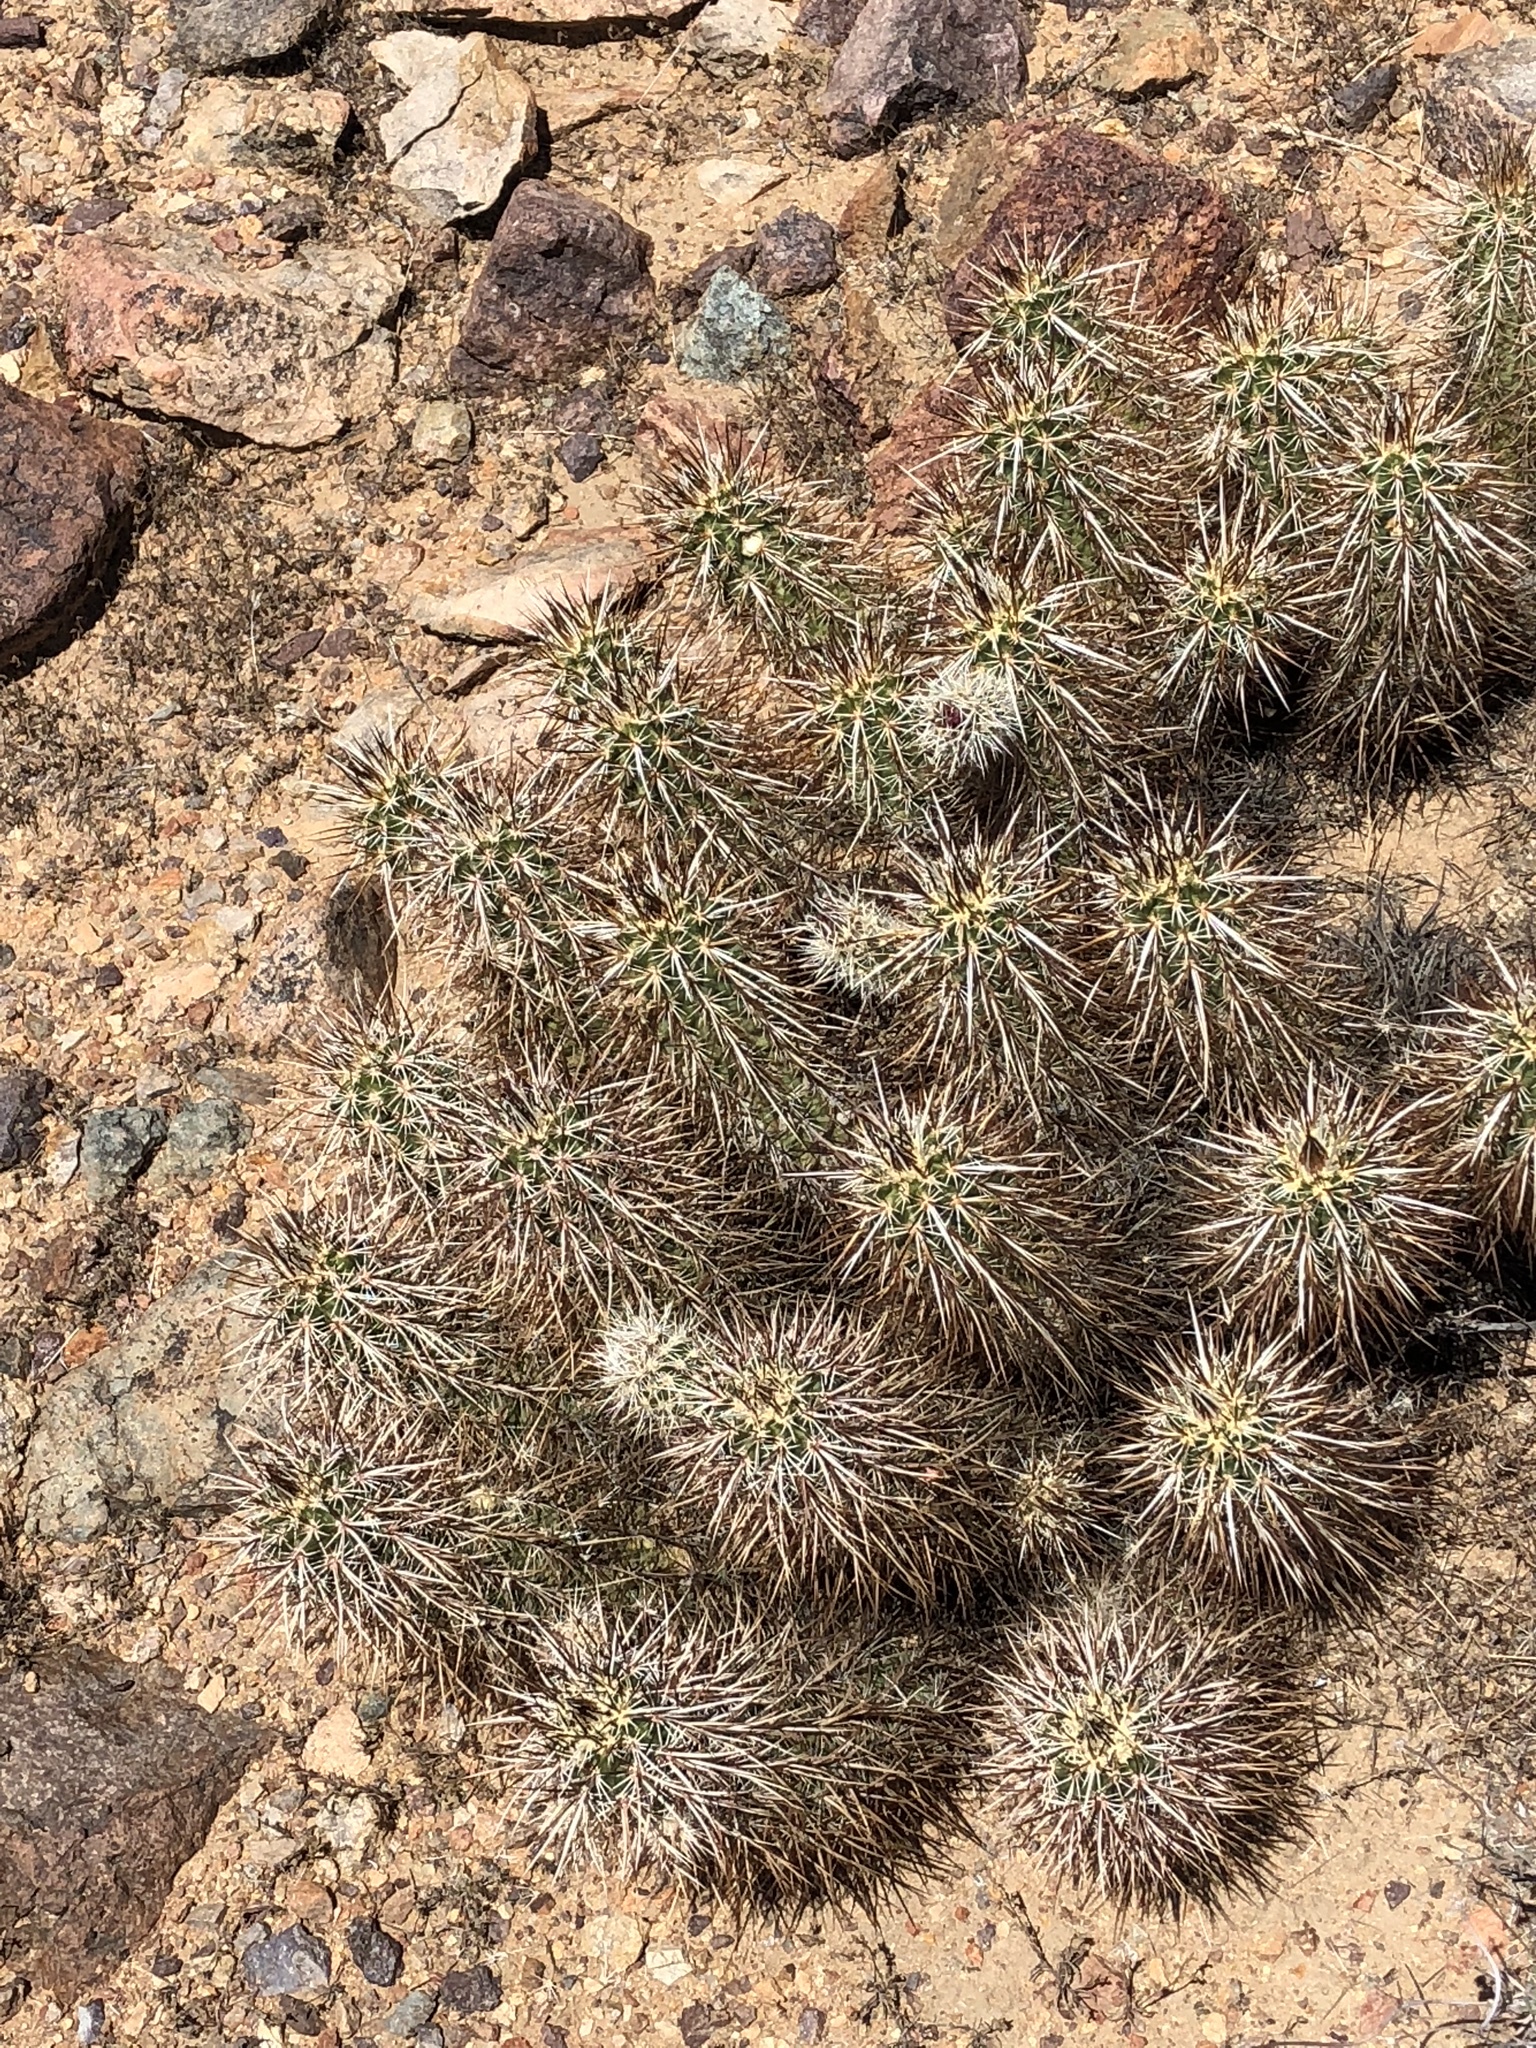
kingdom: Plantae
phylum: Tracheophyta
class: Magnoliopsida
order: Caryophyllales
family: Cactaceae
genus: Echinocereus
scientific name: Echinocereus engelmannii
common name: Engelmann's hedgehog cactus
